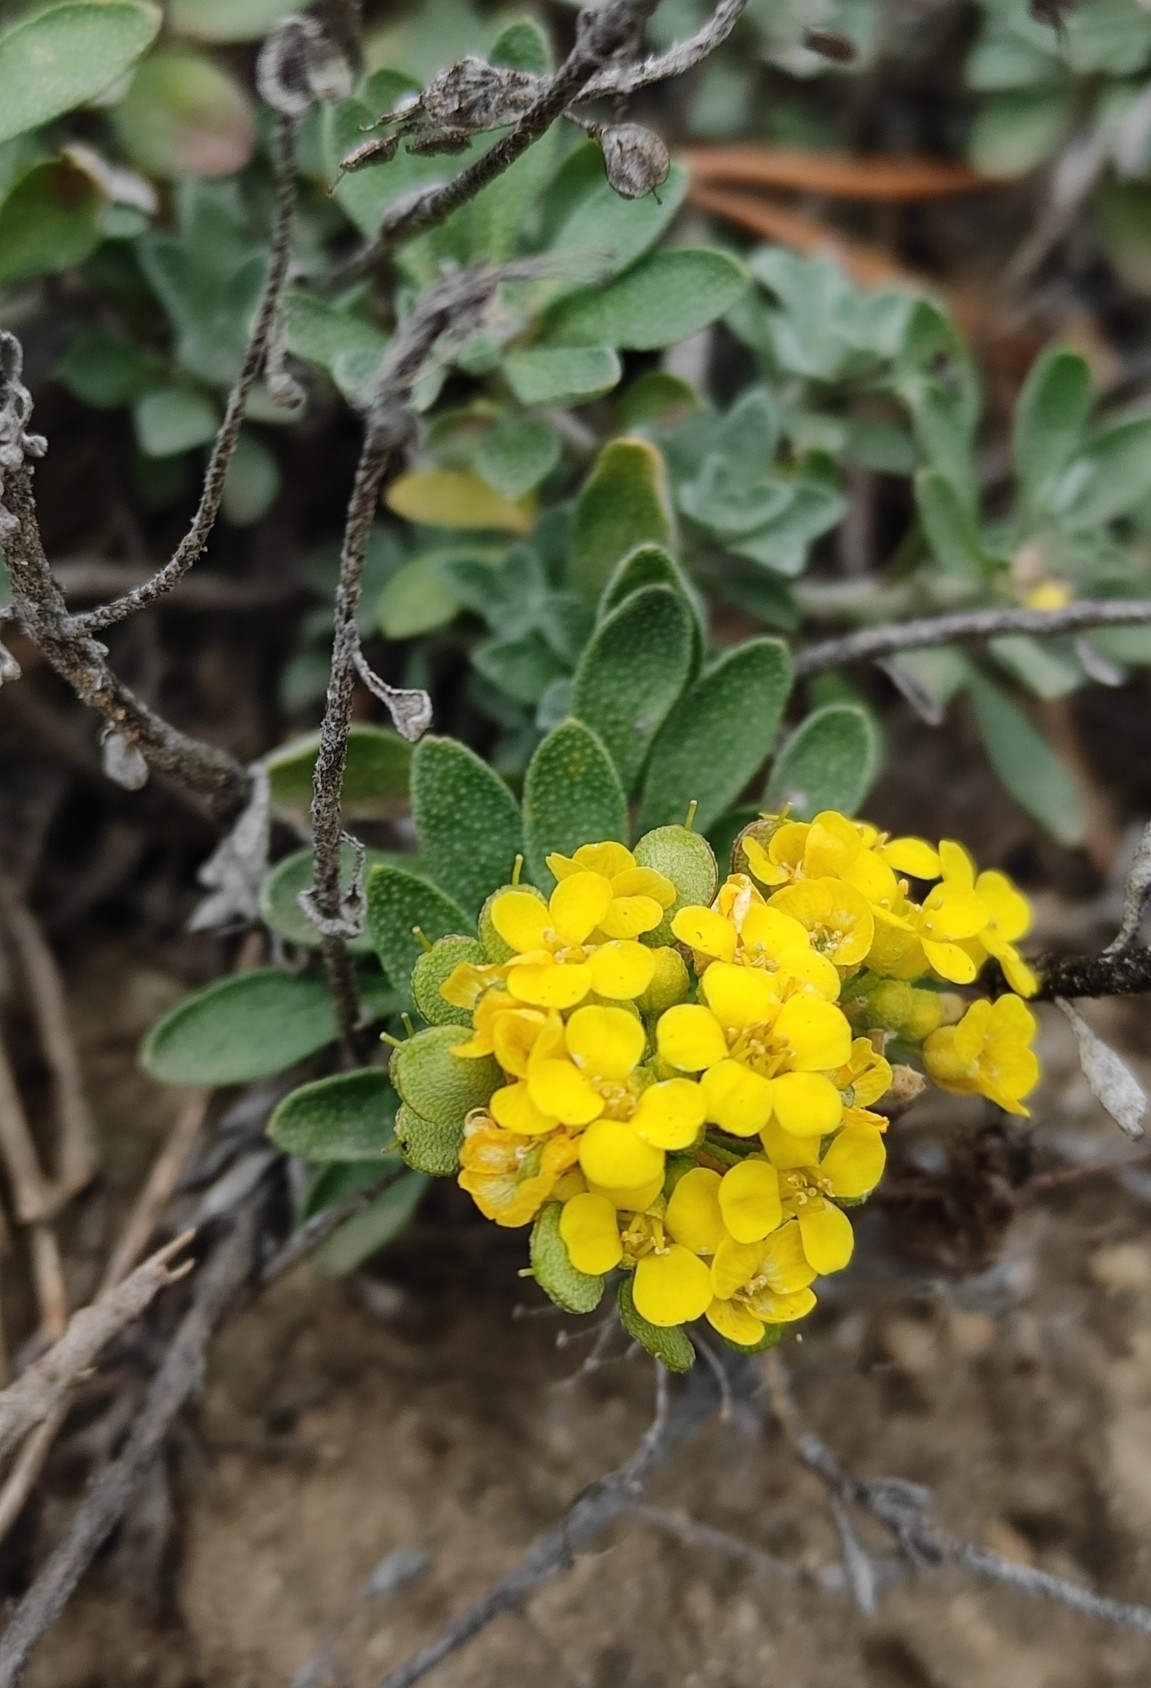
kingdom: Plantae
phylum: Tracheophyta
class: Magnoliopsida
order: Brassicales
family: Brassicaceae
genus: Odontarrhena
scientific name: Odontarrhena obovata
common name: American alyssum
